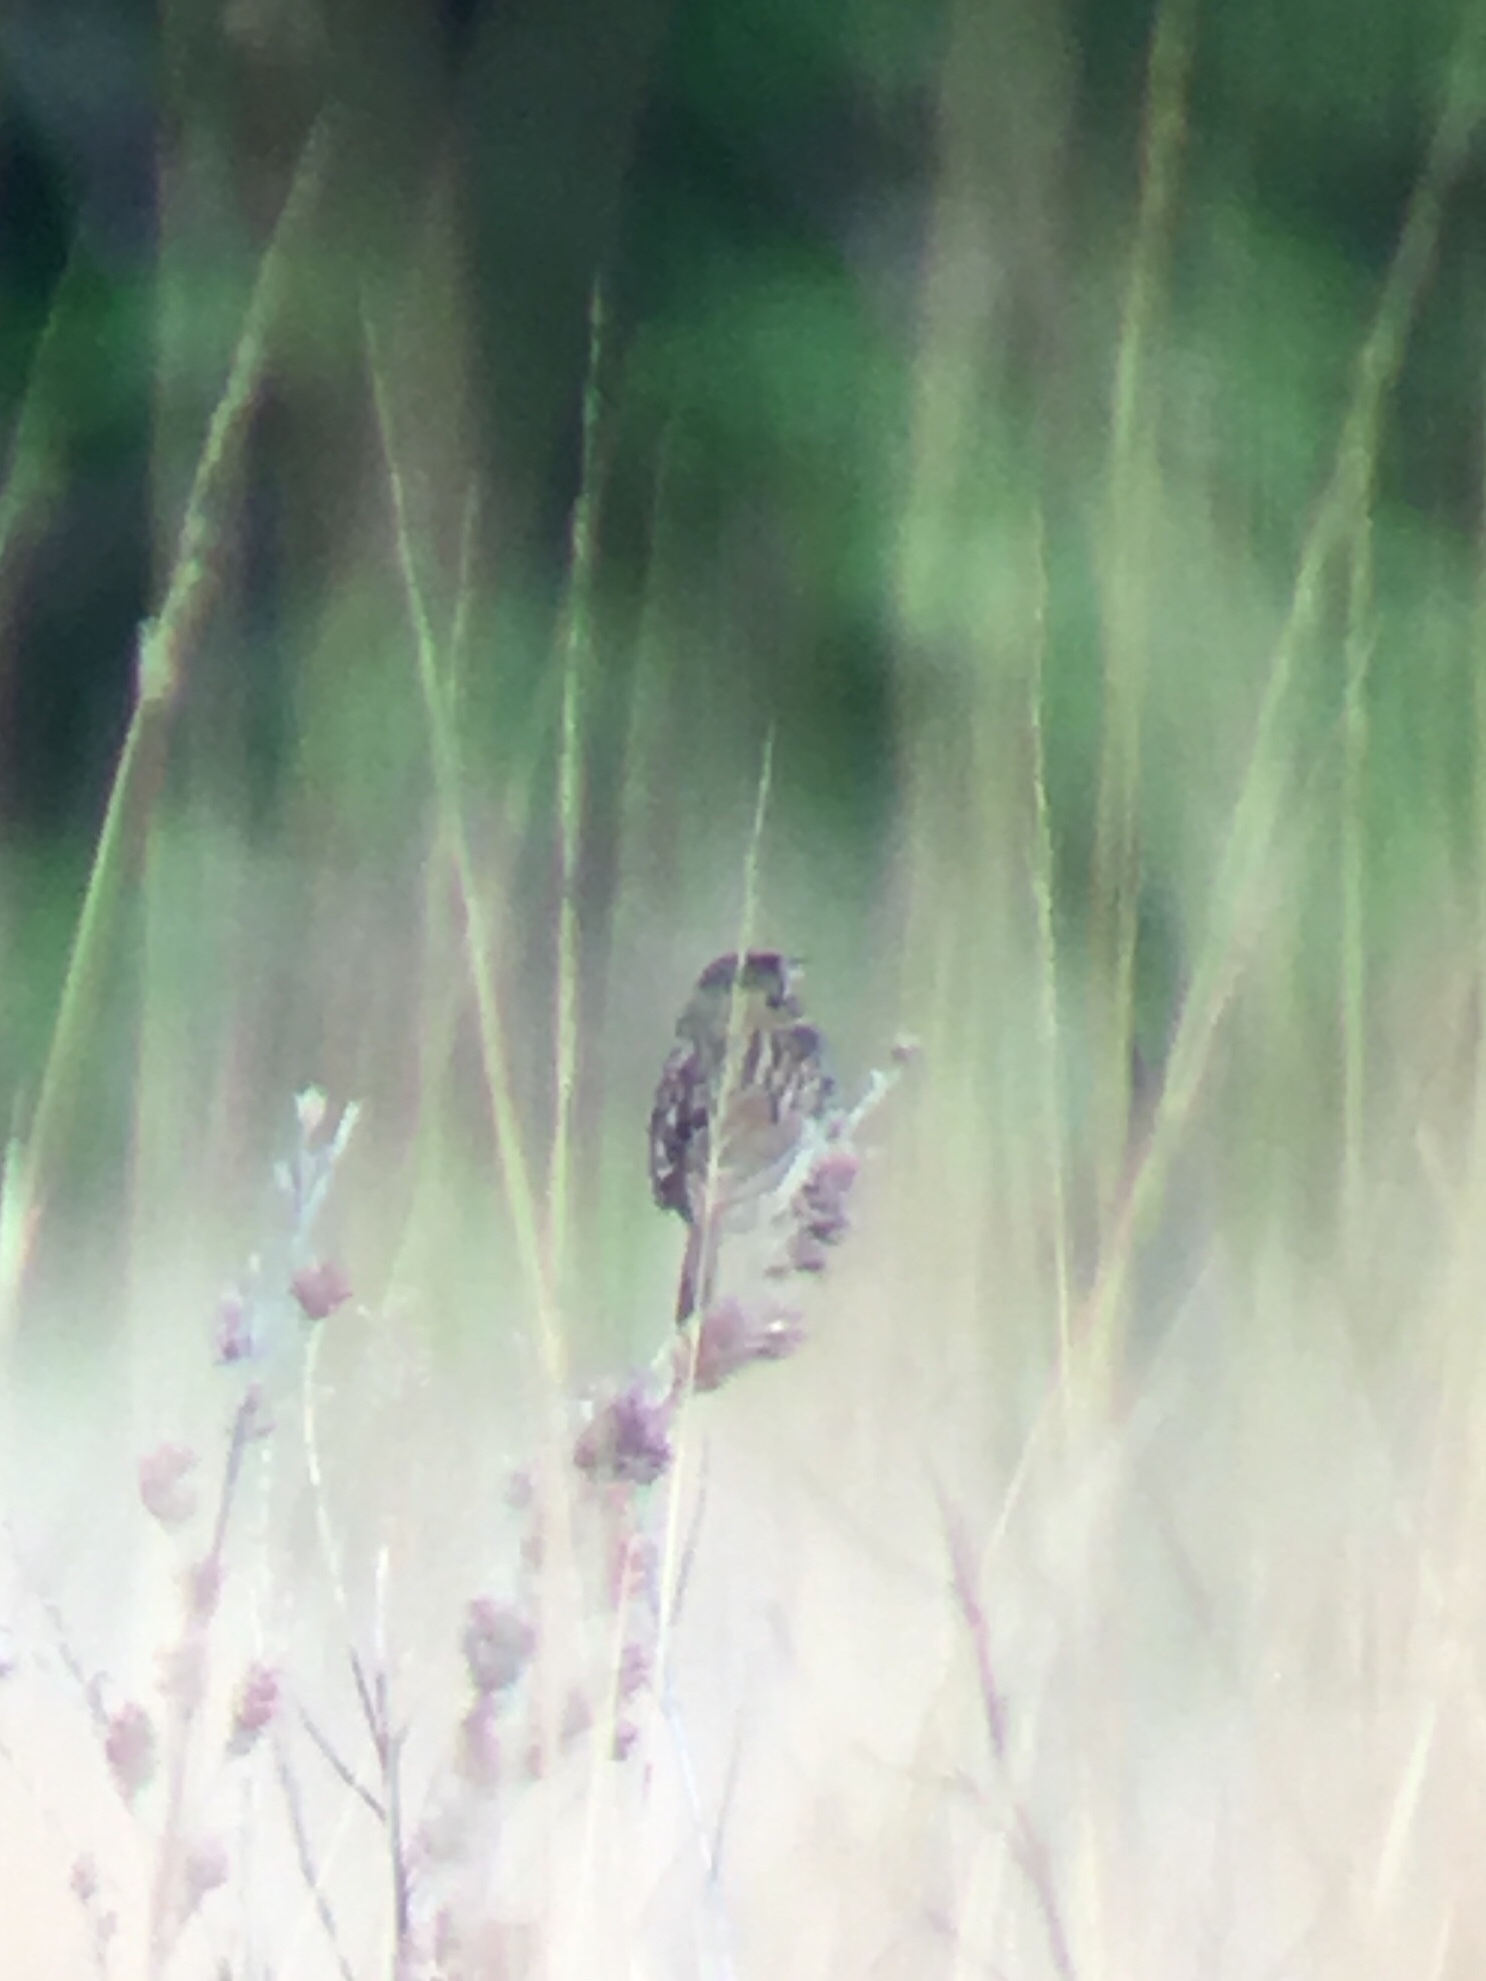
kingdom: Animalia
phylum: Chordata
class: Aves
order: Passeriformes
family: Passerellidae
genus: Centronyx
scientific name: Centronyx henslowii
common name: Henslow's sparrow
